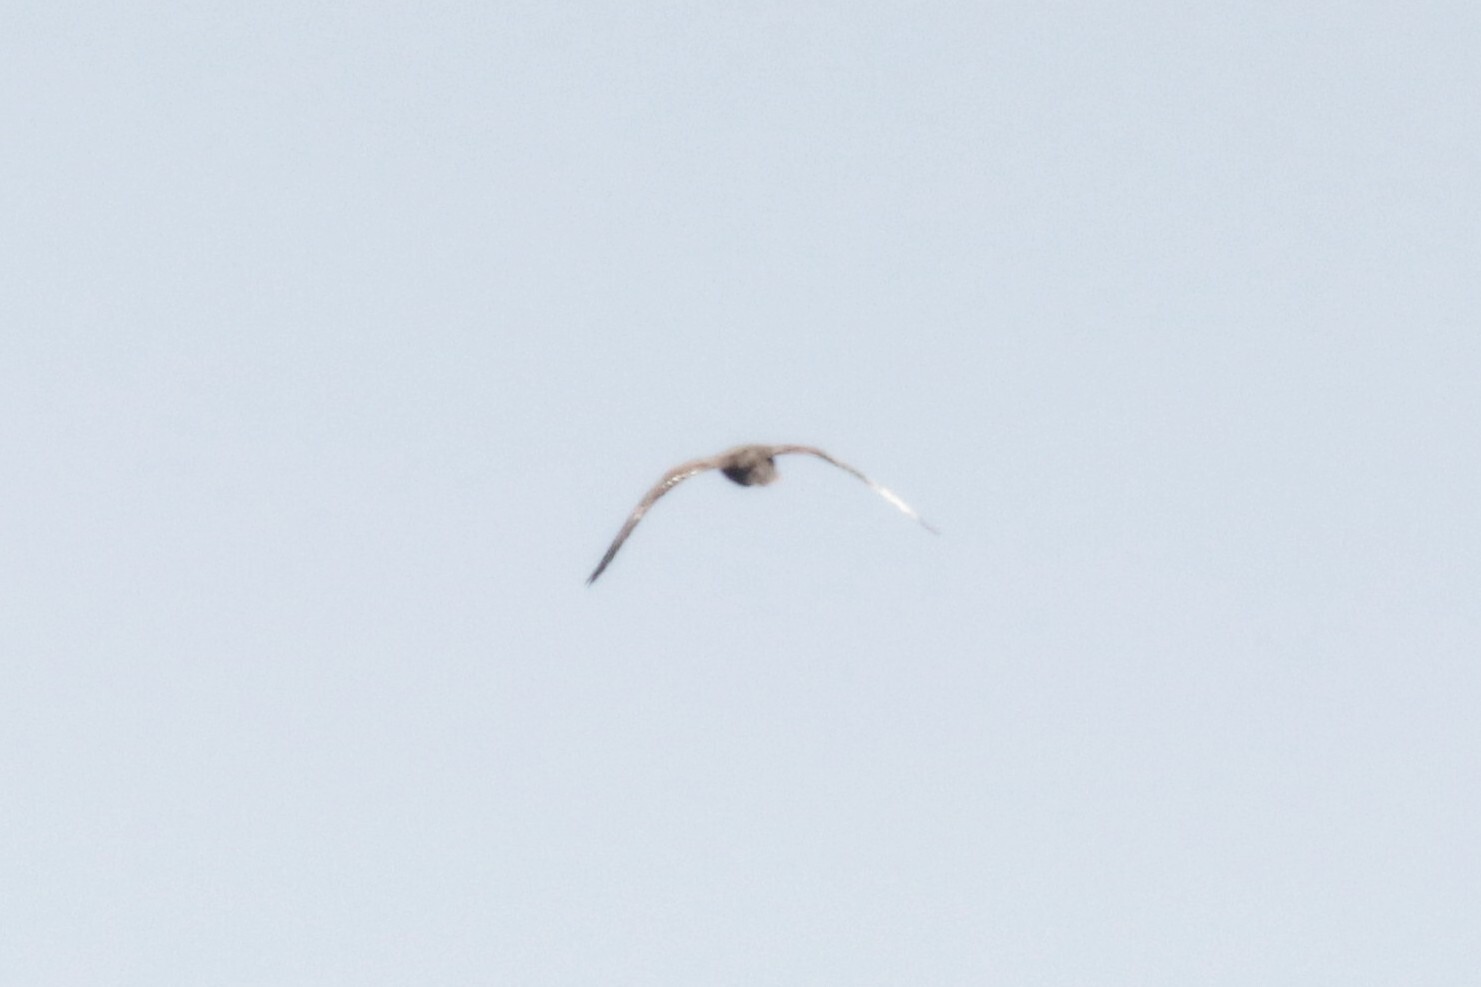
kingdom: Animalia
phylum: Chordata
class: Aves
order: Falconiformes
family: Falconidae
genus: Falco
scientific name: Falco peregrinus
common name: Peregrine falcon
